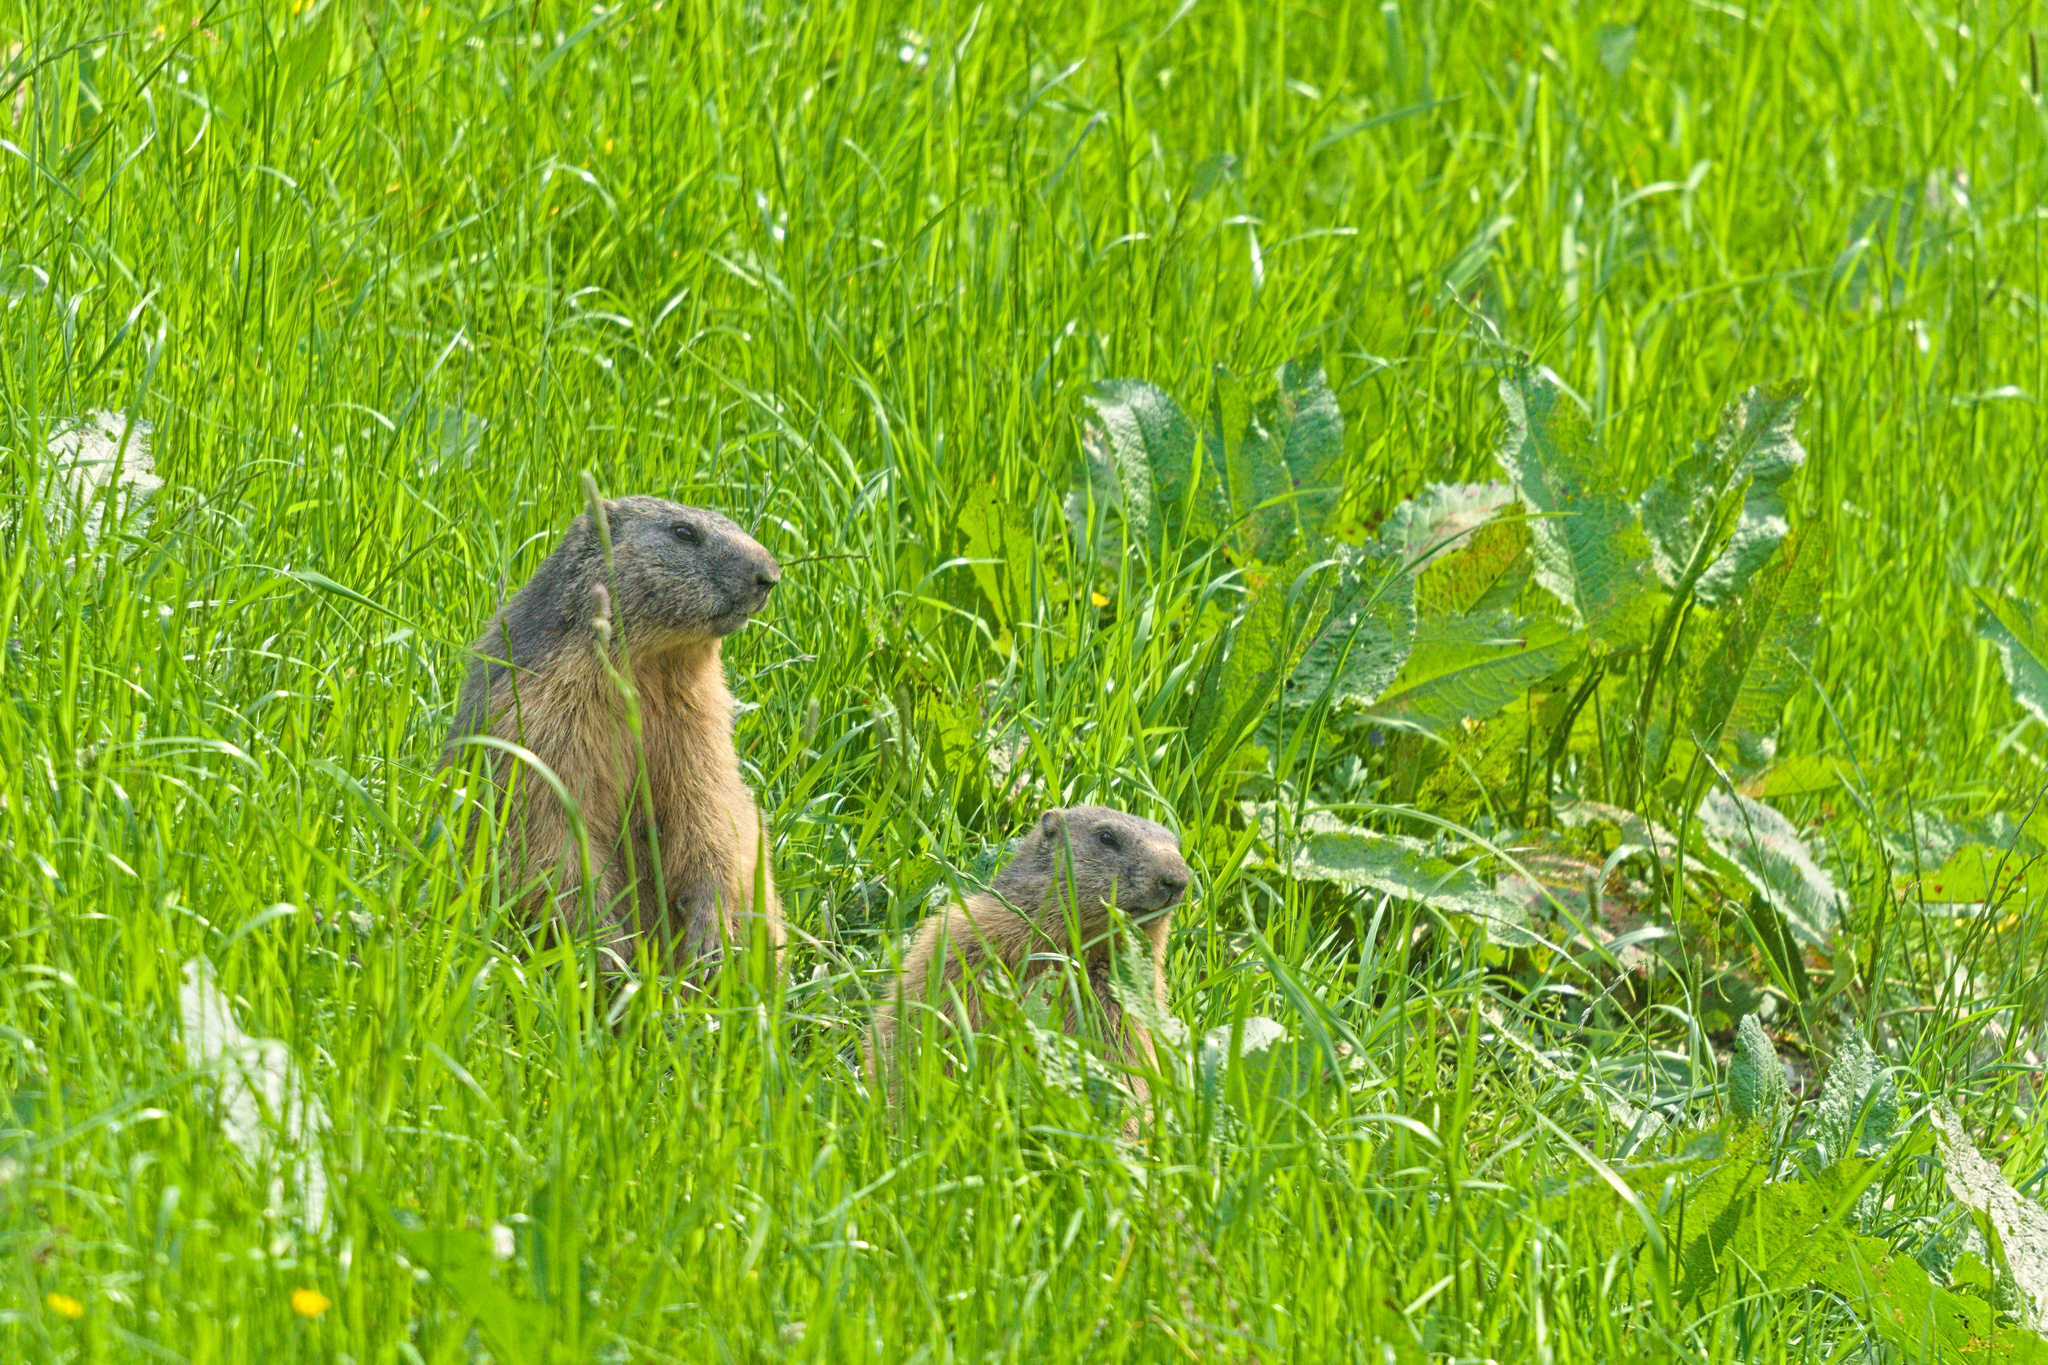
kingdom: Animalia
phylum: Chordata
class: Mammalia
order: Rodentia
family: Sciuridae
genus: Marmota
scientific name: Marmota marmota
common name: Alpine marmot
